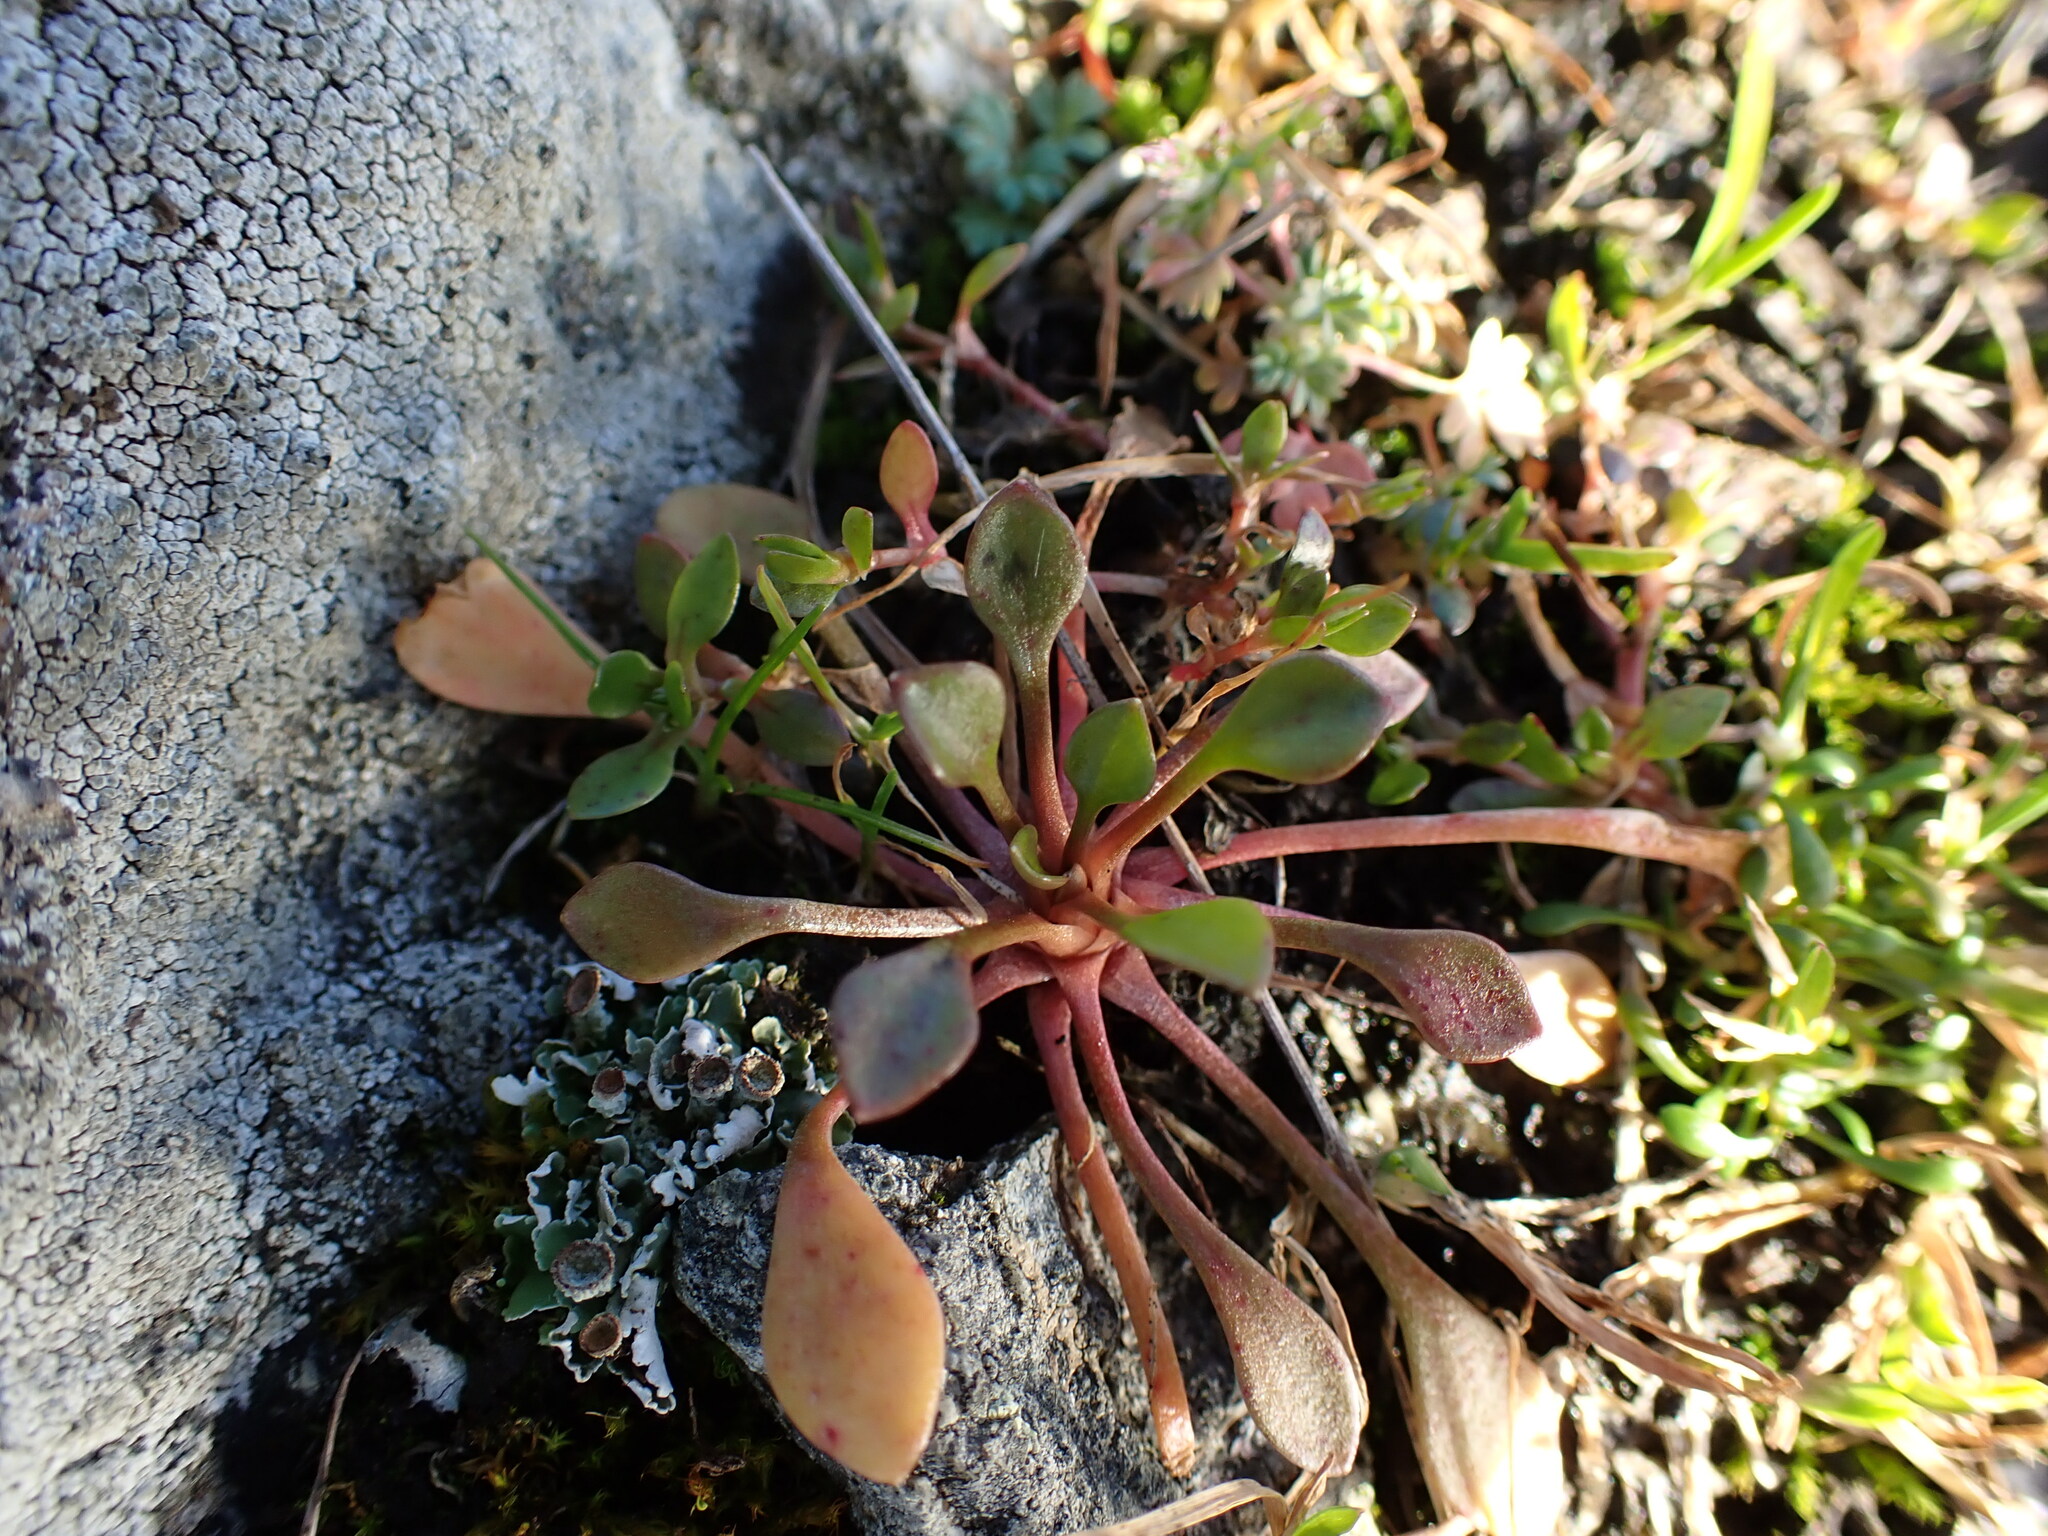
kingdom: Plantae
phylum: Tracheophyta
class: Magnoliopsida
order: Caryophyllales
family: Montiaceae
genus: Claytonia
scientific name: Claytonia rubra
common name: Erubescent miner's-lettuce
